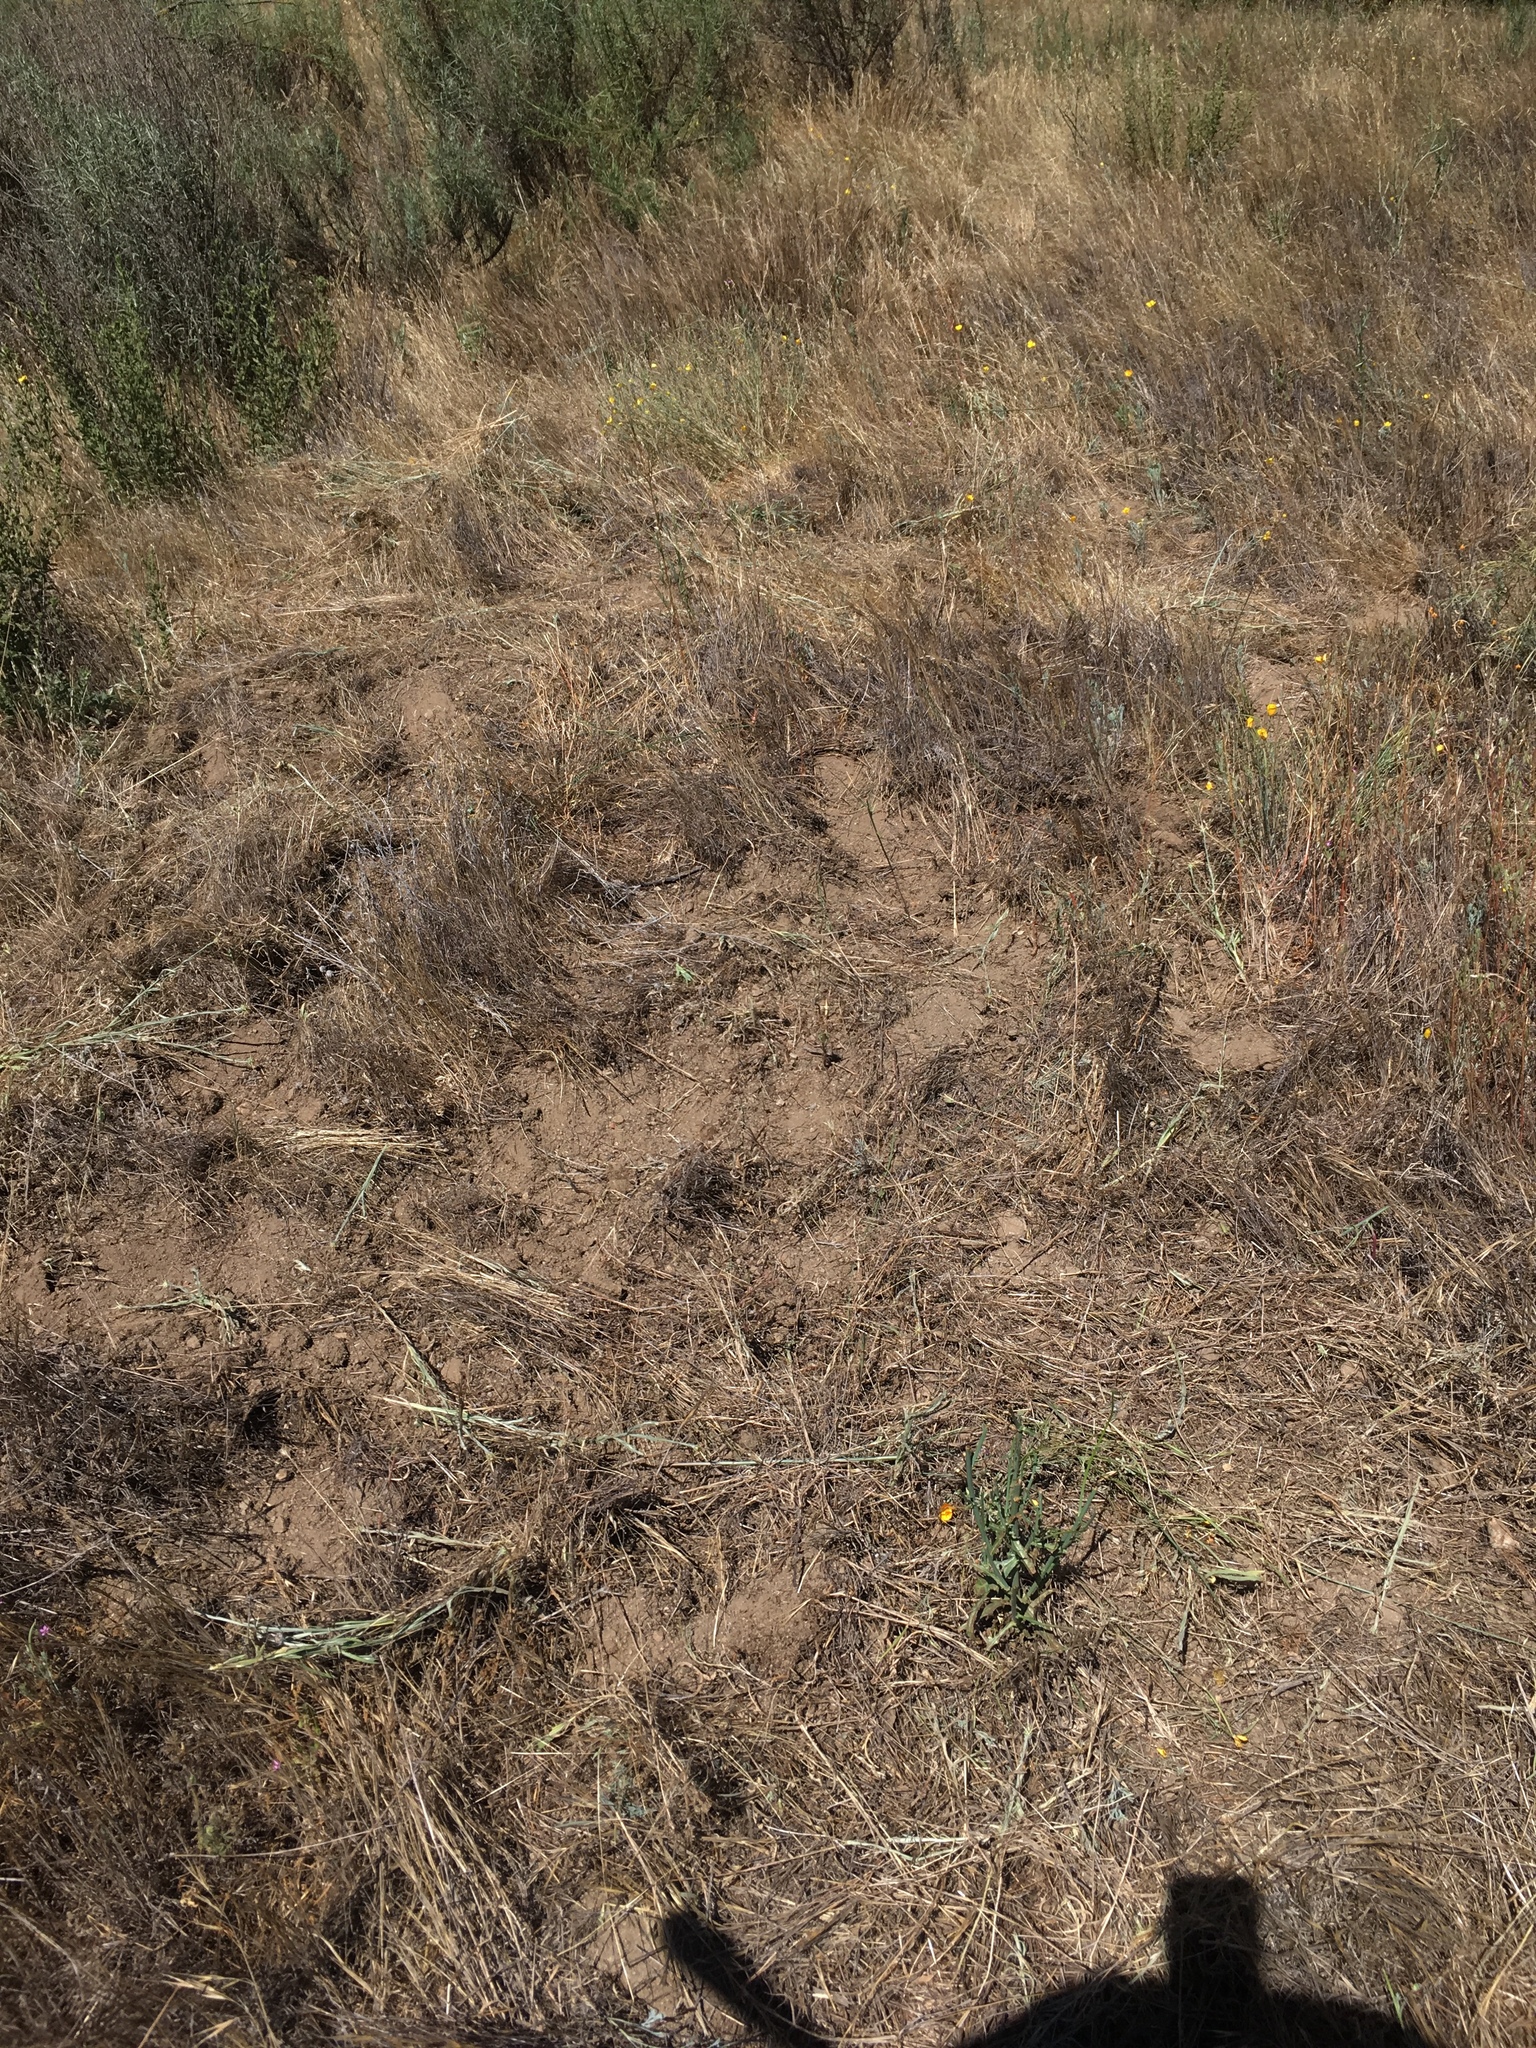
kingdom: Plantae
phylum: Tracheophyta
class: Magnoliopsida
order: Asterales
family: Asteraceae
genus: Centaurea
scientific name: Centaurea solstitialis
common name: Yellow star-thistle
